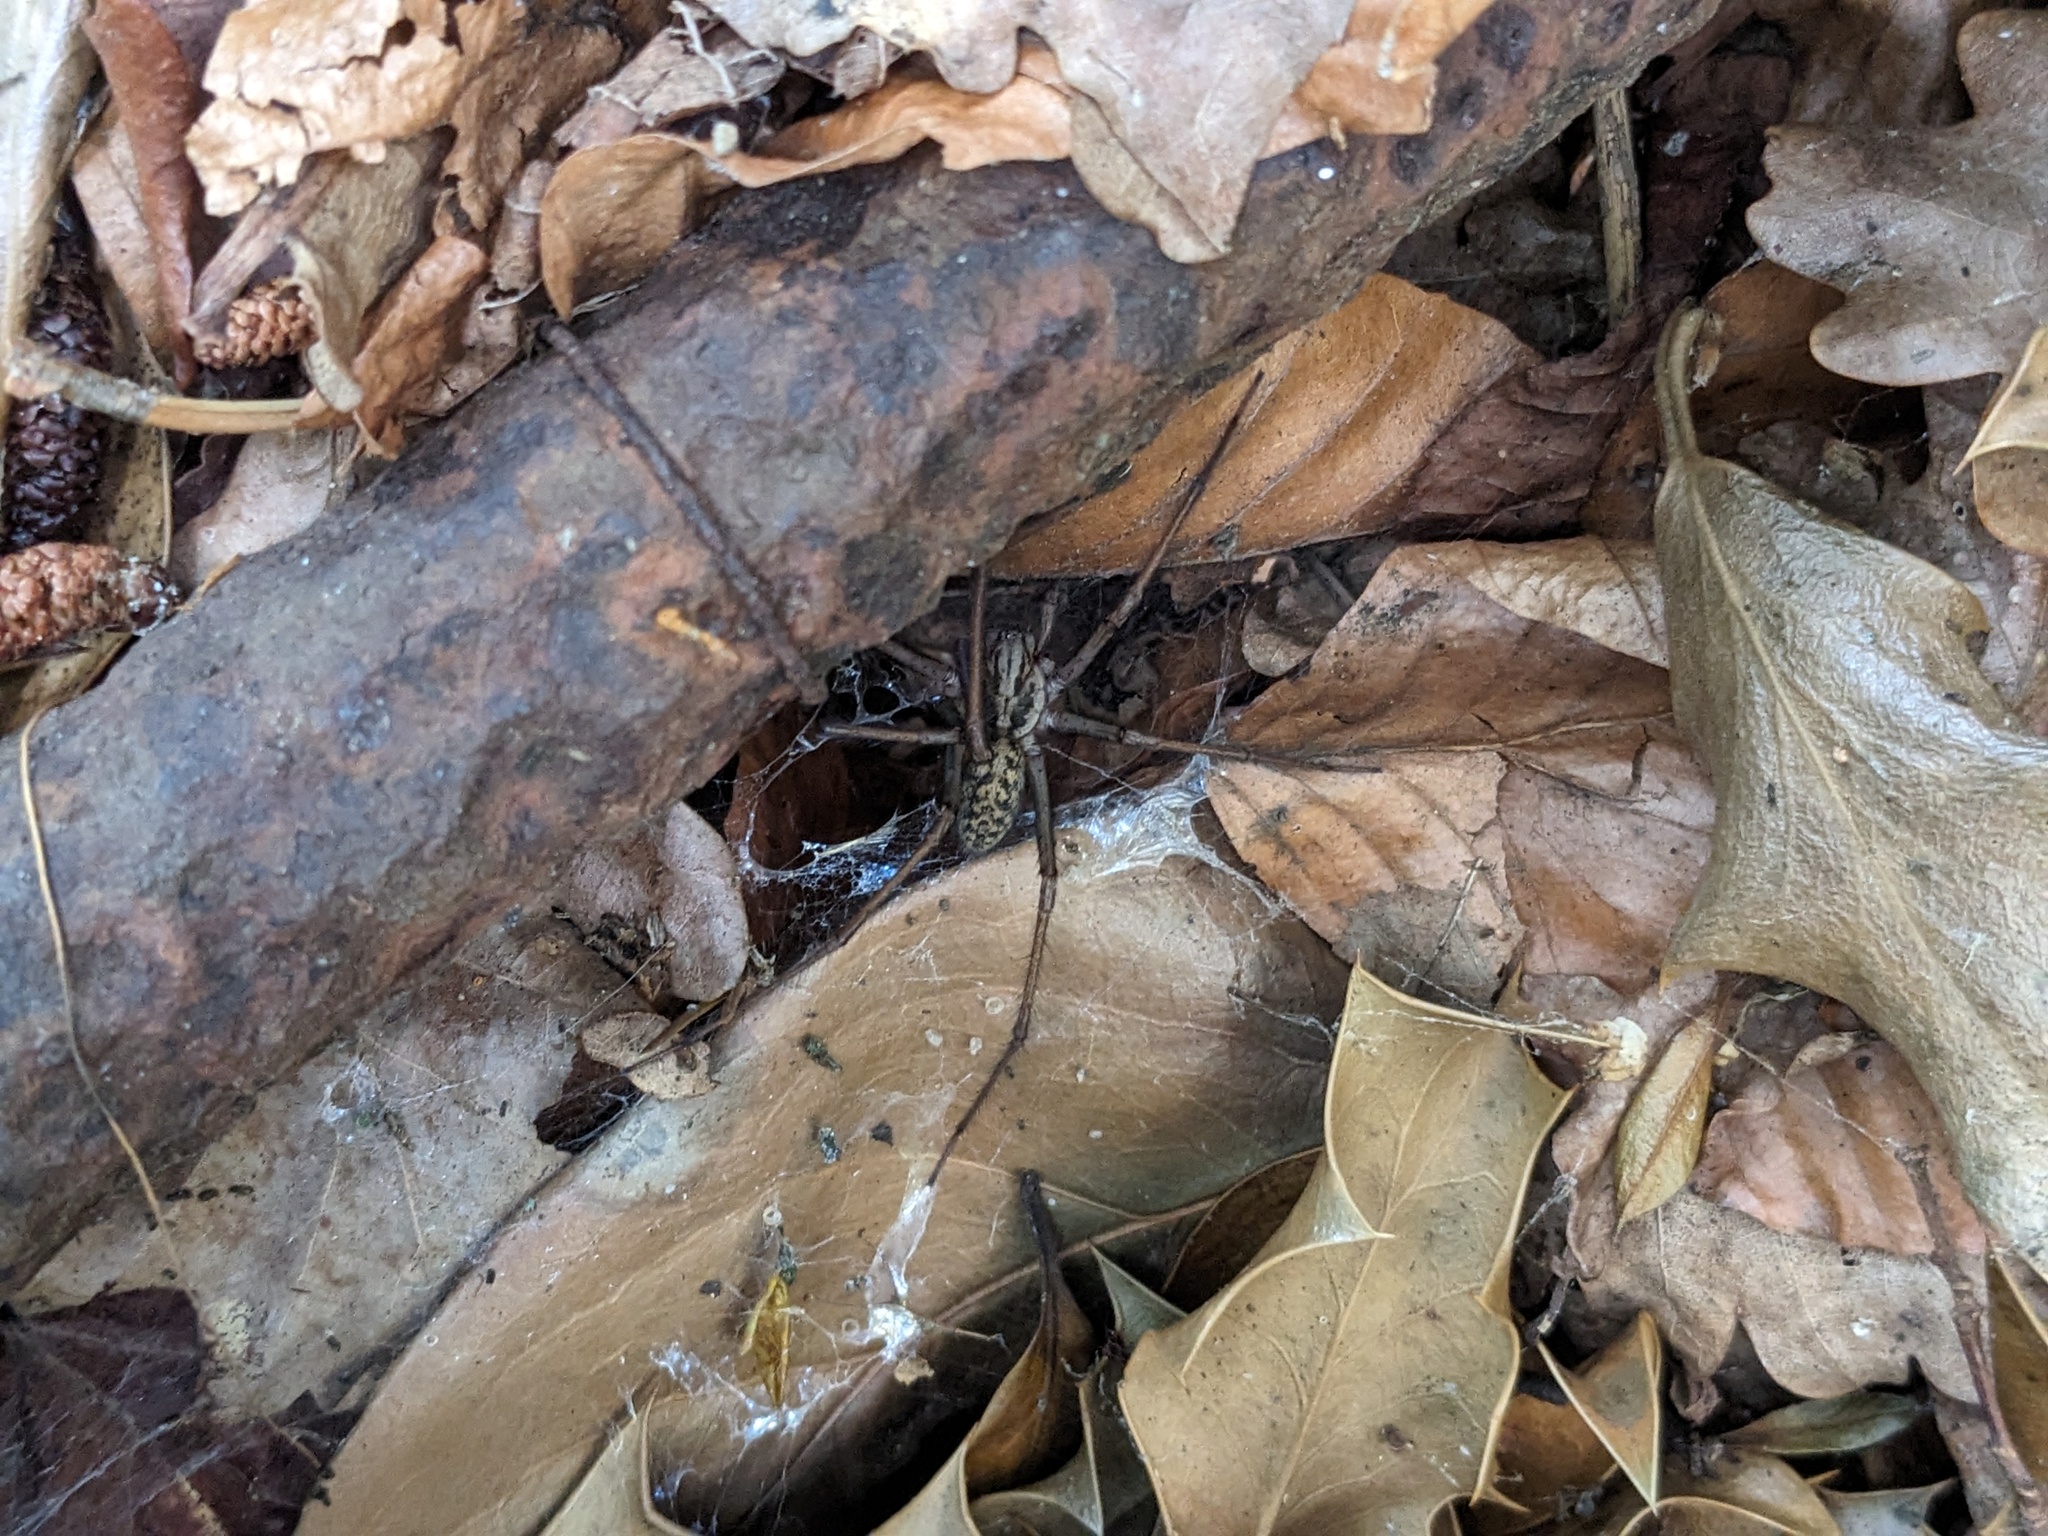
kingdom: Animalia
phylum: Arthropoda
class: Arachnida
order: Araneae
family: Agelenidae
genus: Eratigena
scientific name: Eratigena duellica
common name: Giant house spider
